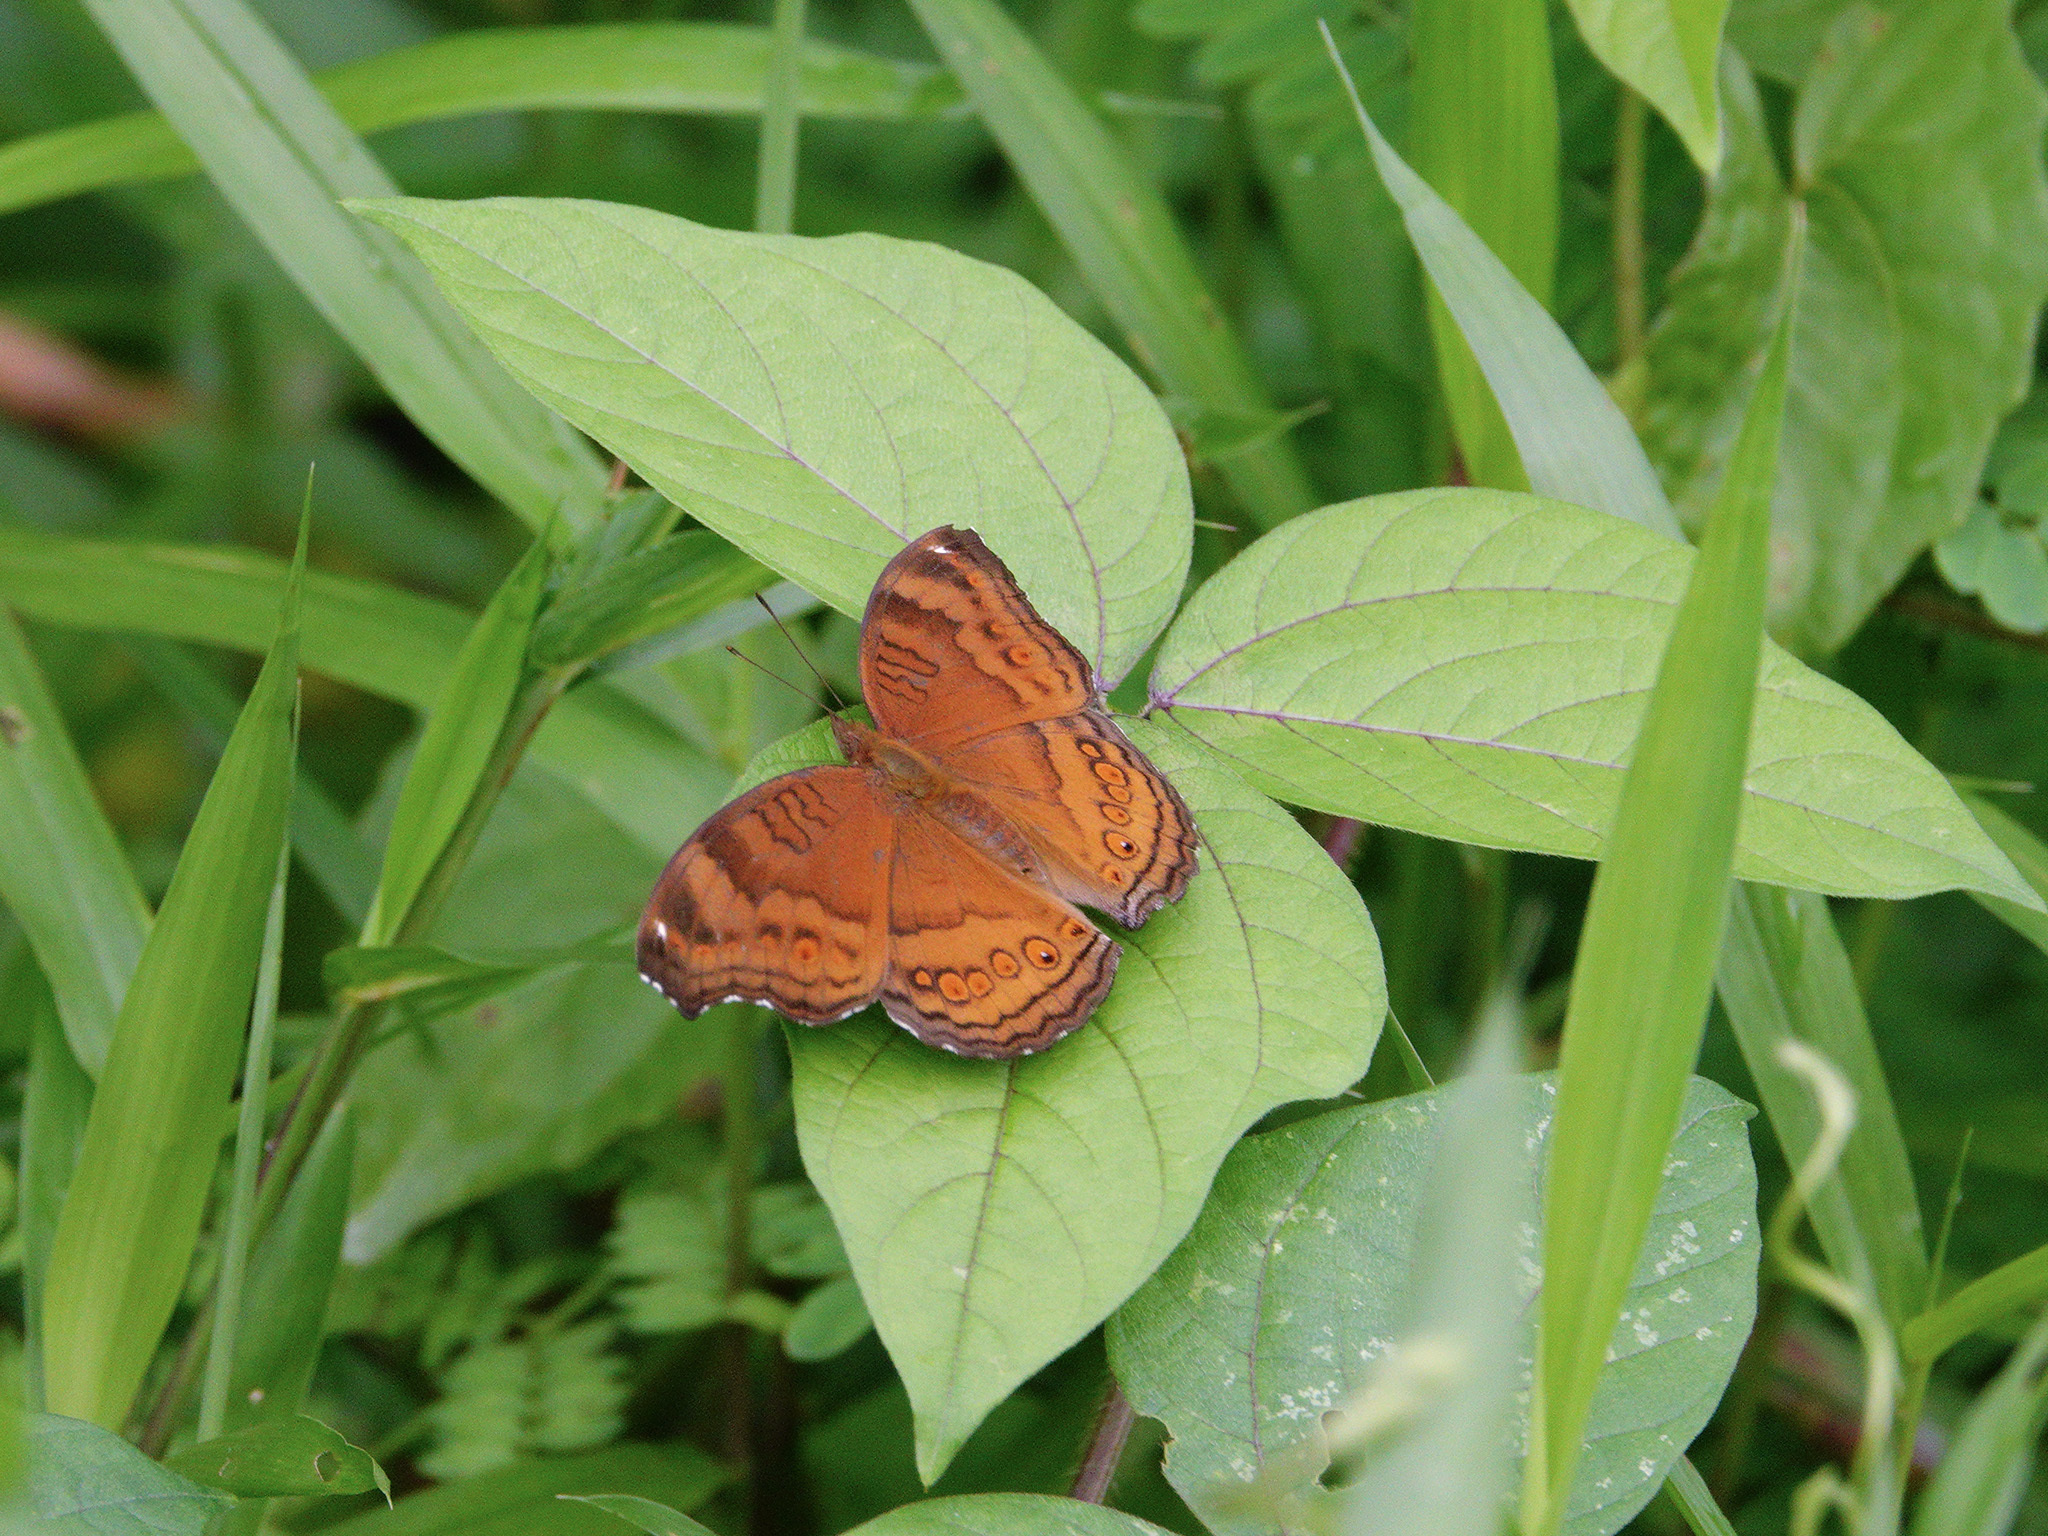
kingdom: Animalia
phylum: Arthropoda
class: Insecta
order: Lepidoptera
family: Nymphalidae
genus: Junonia
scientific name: Junonia hedonia
